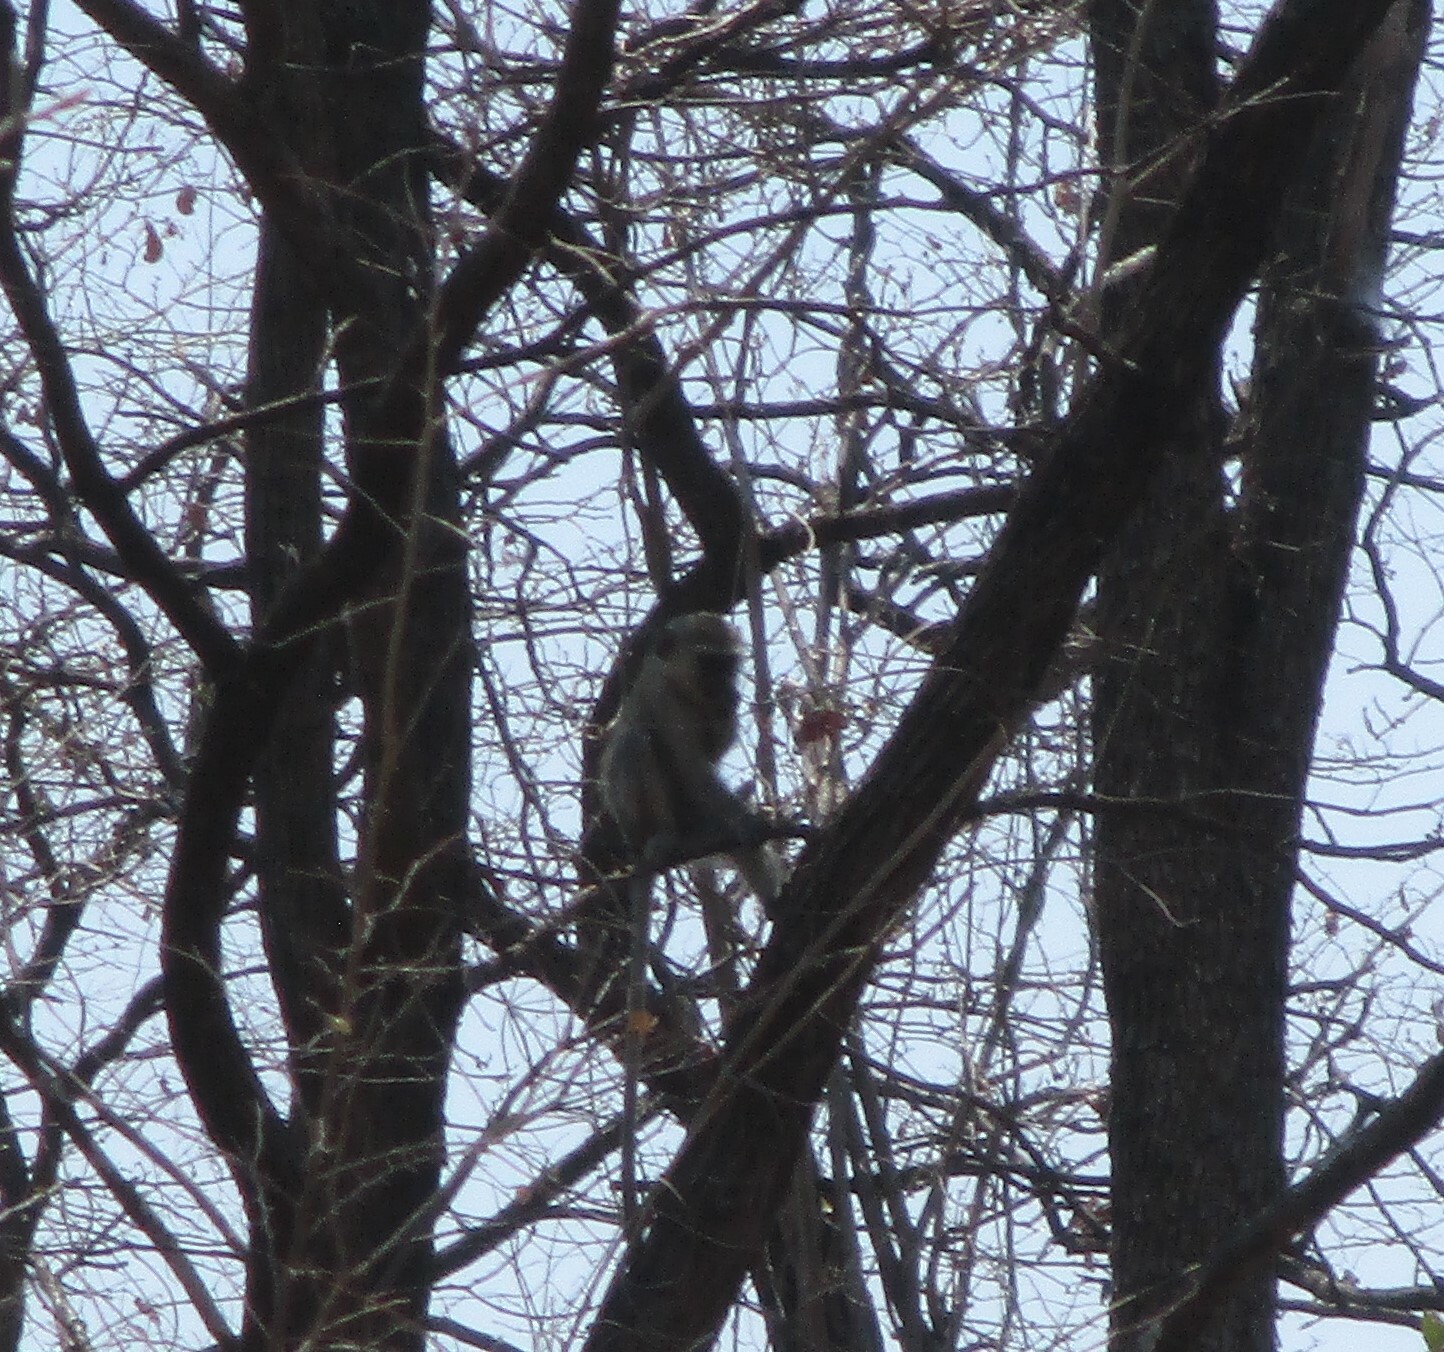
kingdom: Animalia
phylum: Chordata
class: Mammalia
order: Primates
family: Cercopithecidae
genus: Chlorocebus
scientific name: Chlorocebus pygerythrus
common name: Vervet monkey
